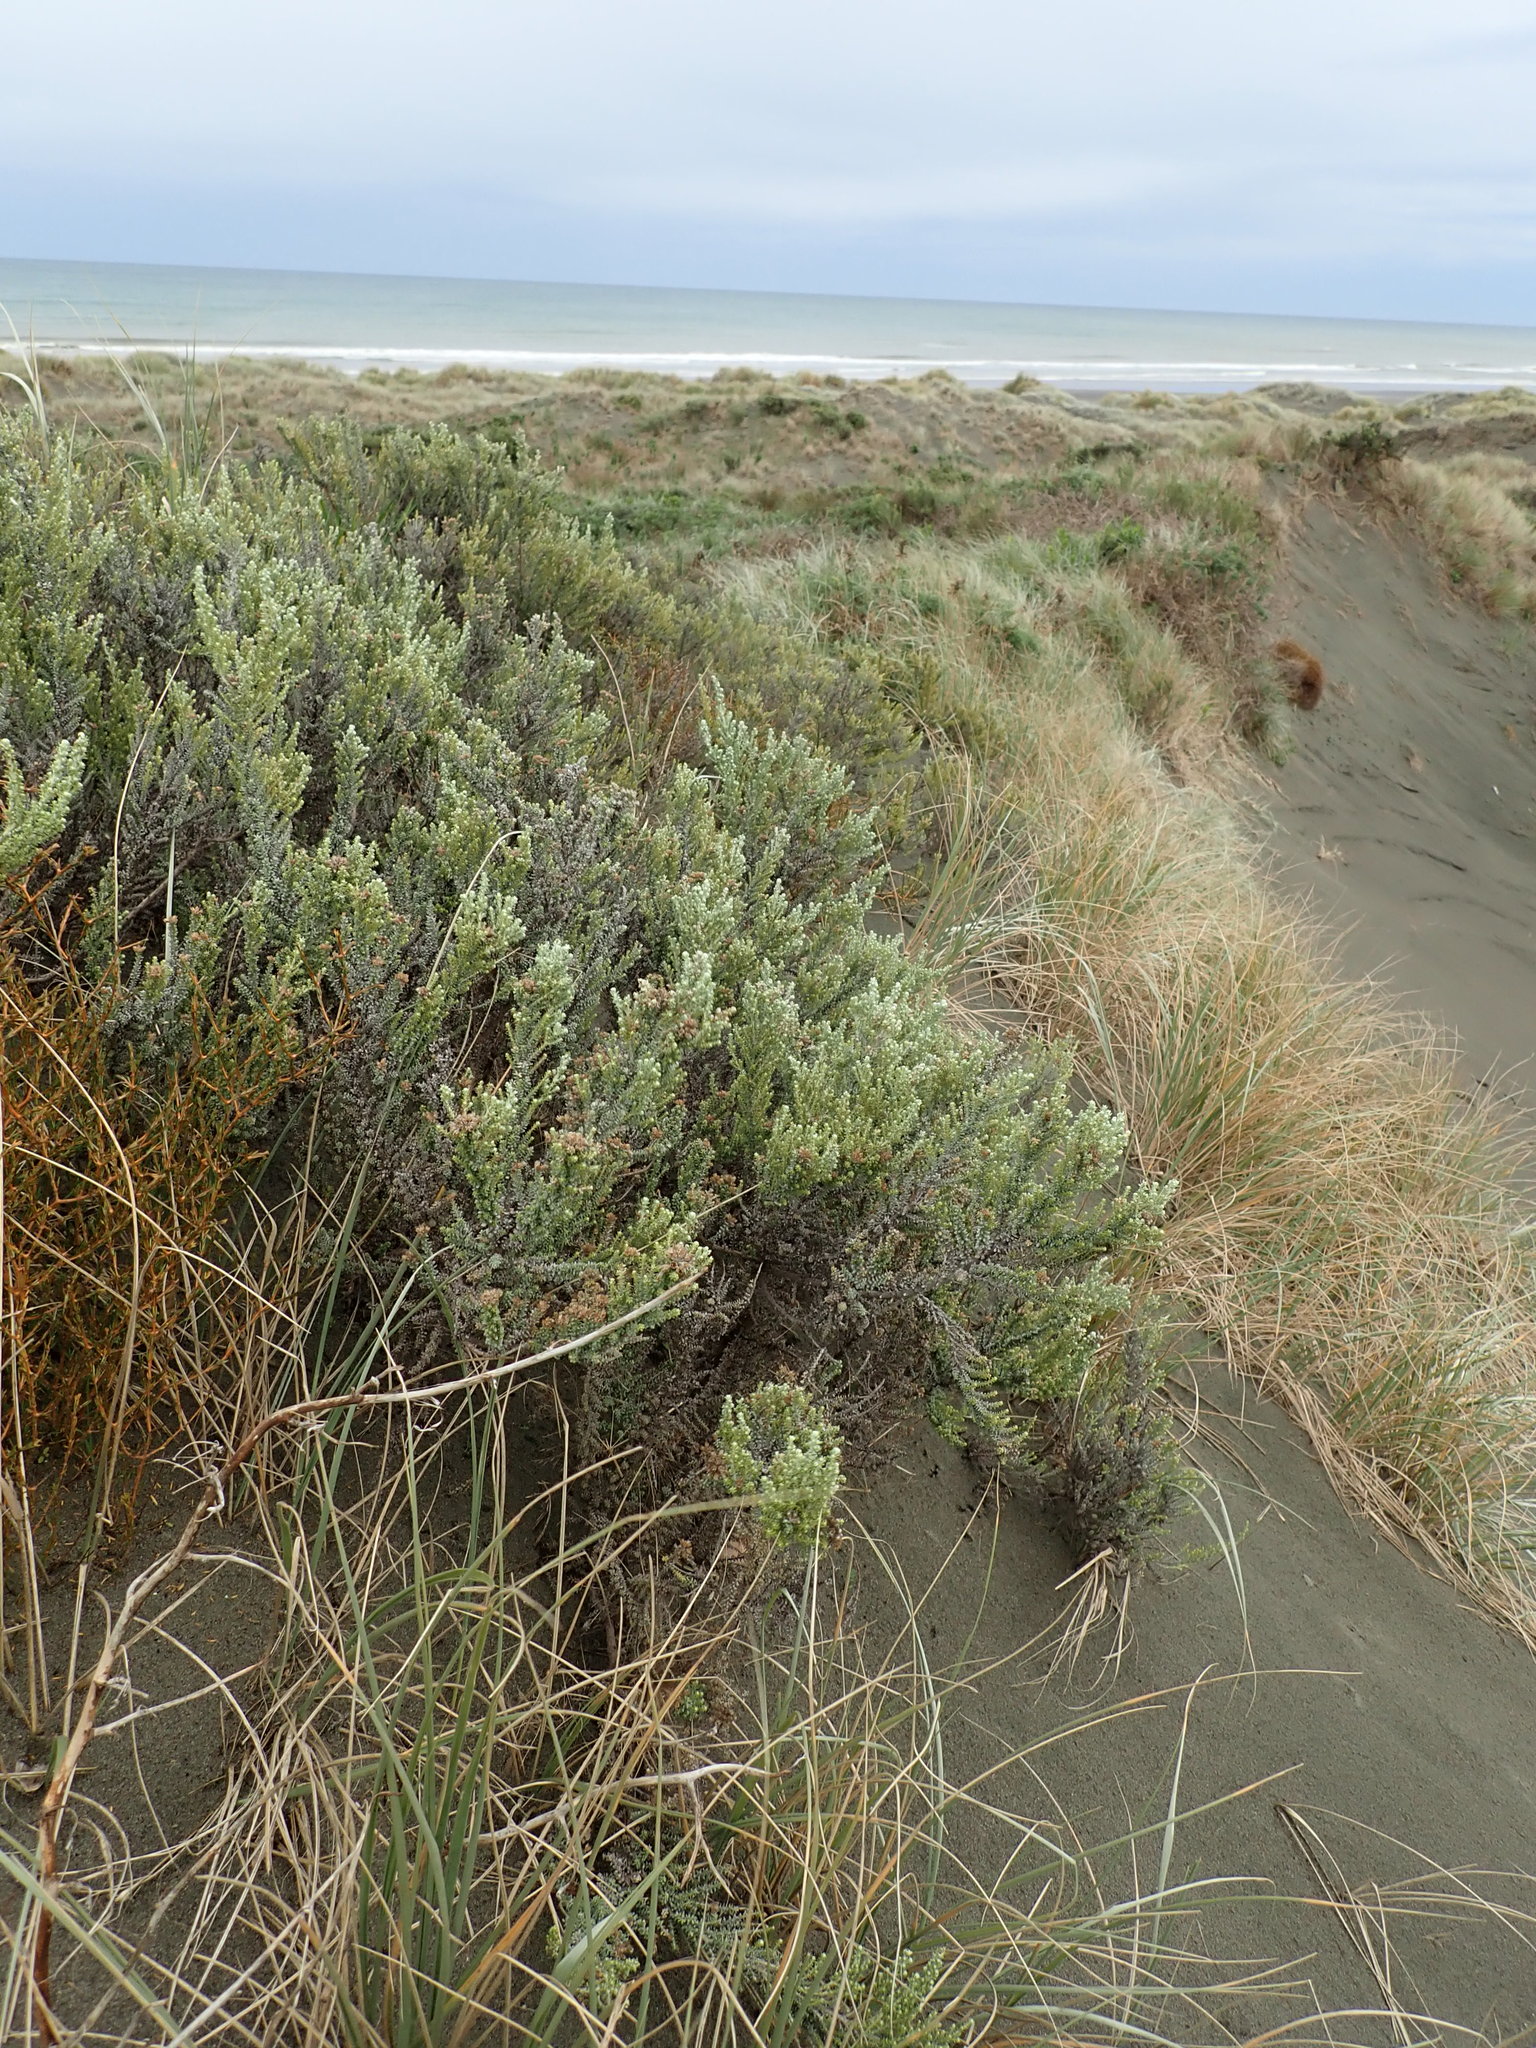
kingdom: Plantae
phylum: Tracheophyta
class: Magnoliopsida
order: Asterales
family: Asteraceae
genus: Ozothamnus
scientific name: Ozothamnus leptophyllus
